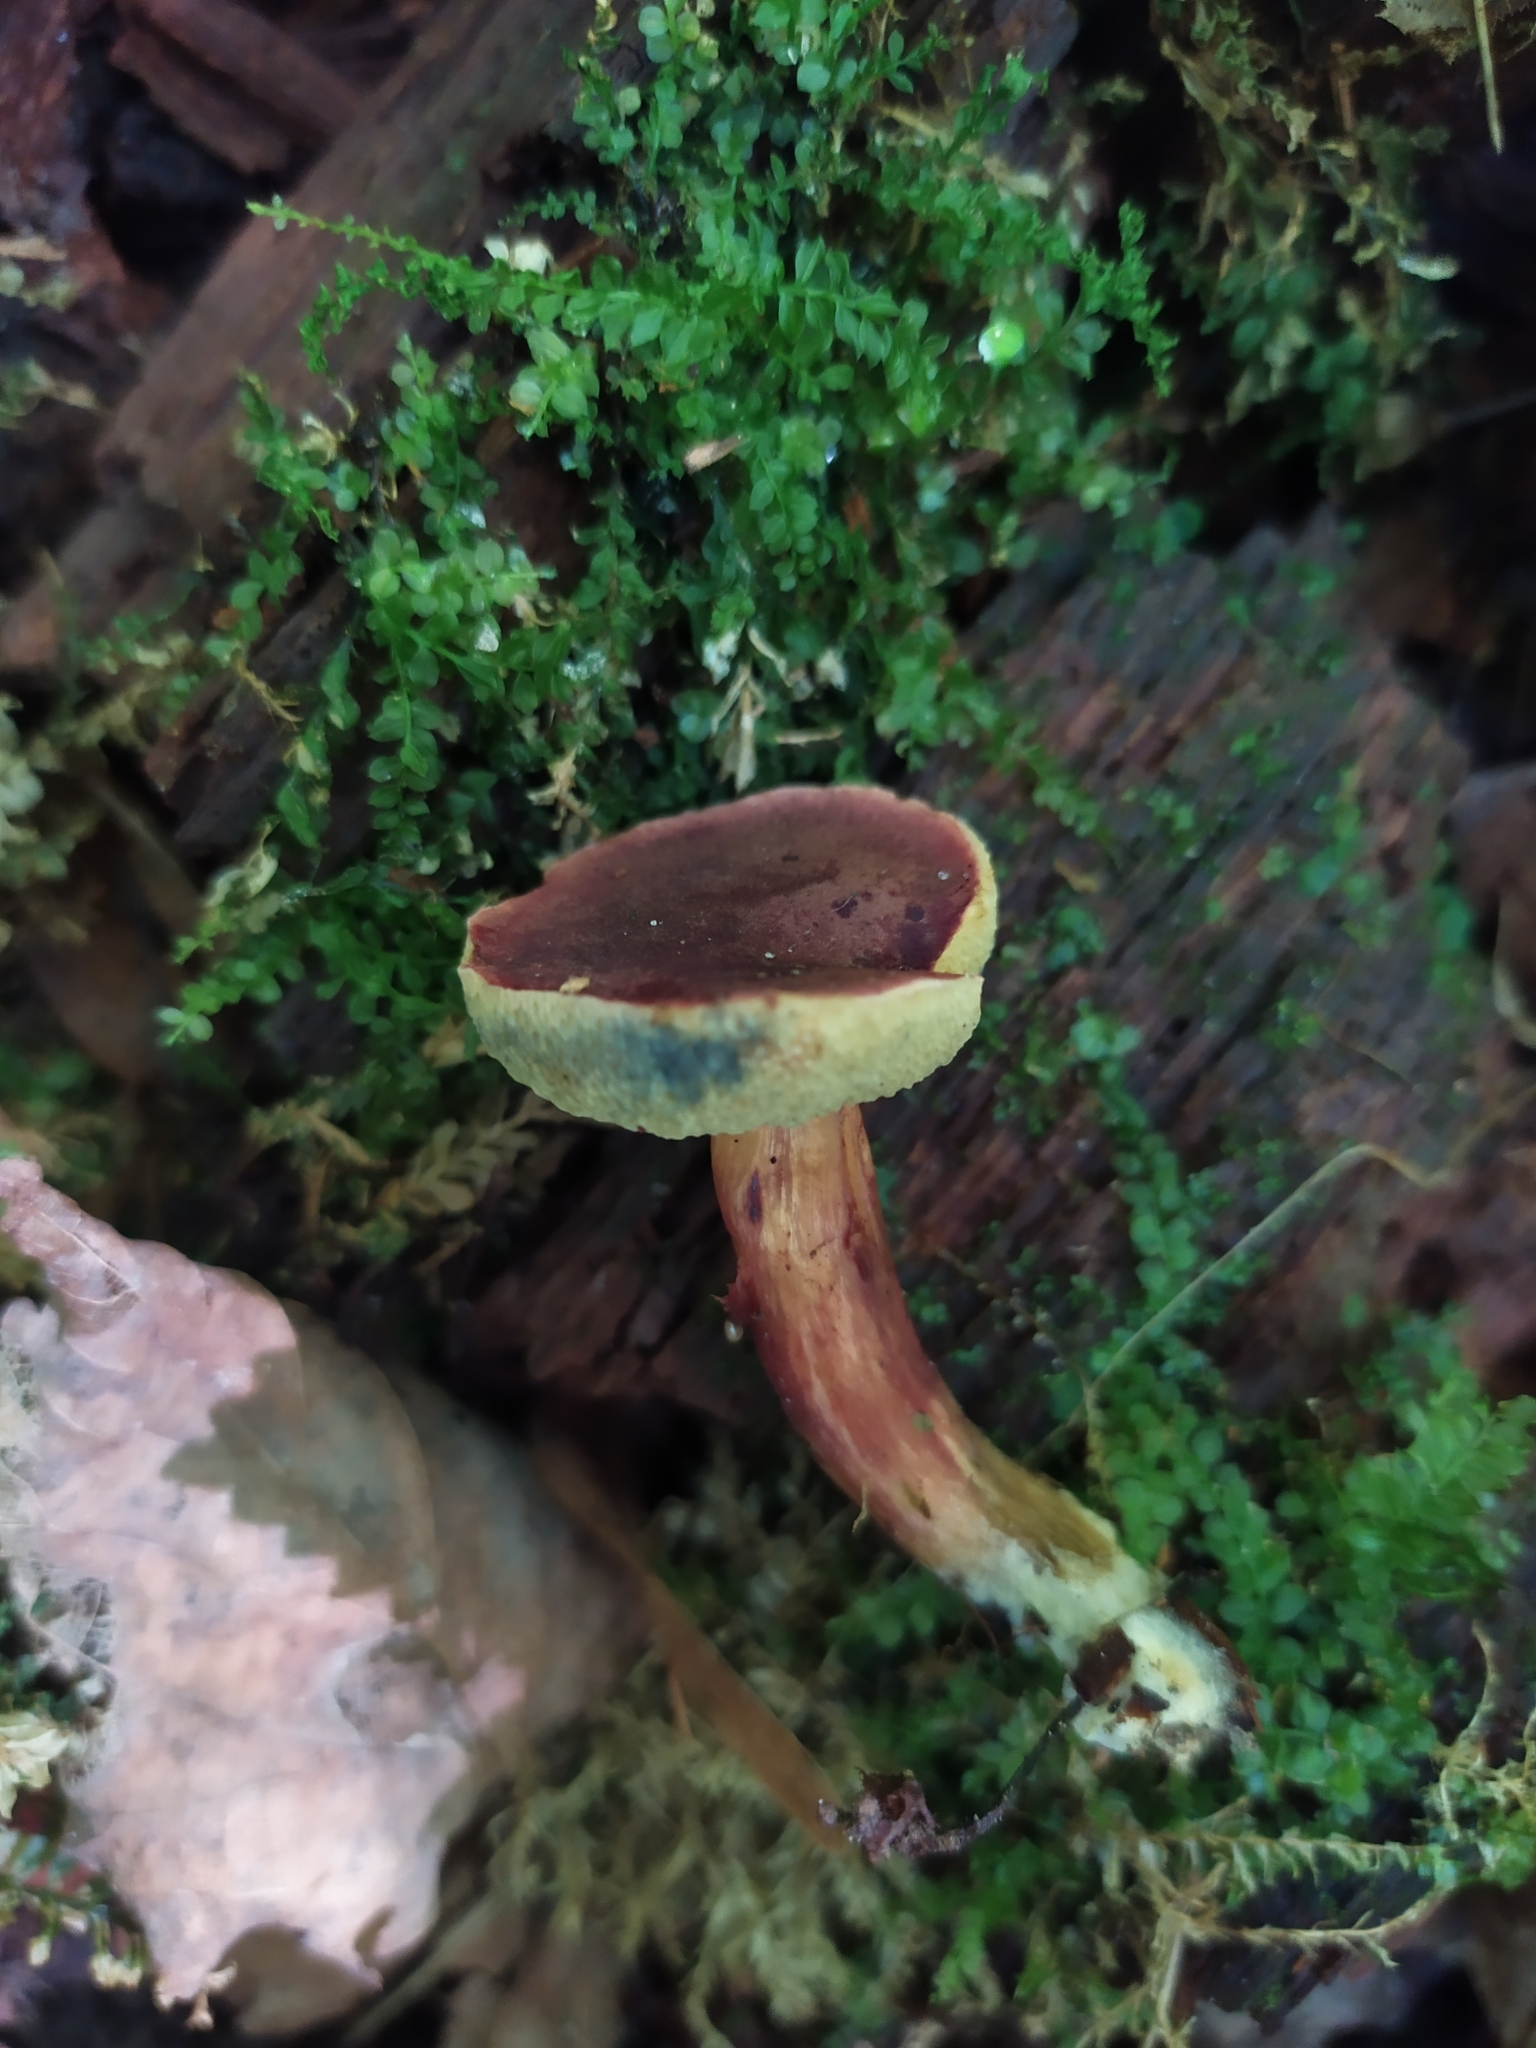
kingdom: Fungi
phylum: Basidiomycota
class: Agaricomycetes
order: Boletales
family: Boletaceae
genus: Hortiboletus
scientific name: Hortiboletus rubellus
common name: Ruby bolete
